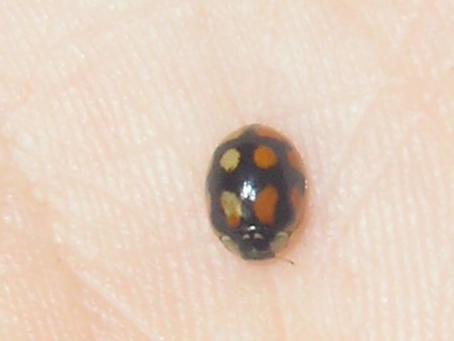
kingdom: Animalia
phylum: Arthropoda
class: Insecta
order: Coleoptera
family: Coccinellidae
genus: Adalia
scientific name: Adalia decempunctata
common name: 10-spot ladybird
